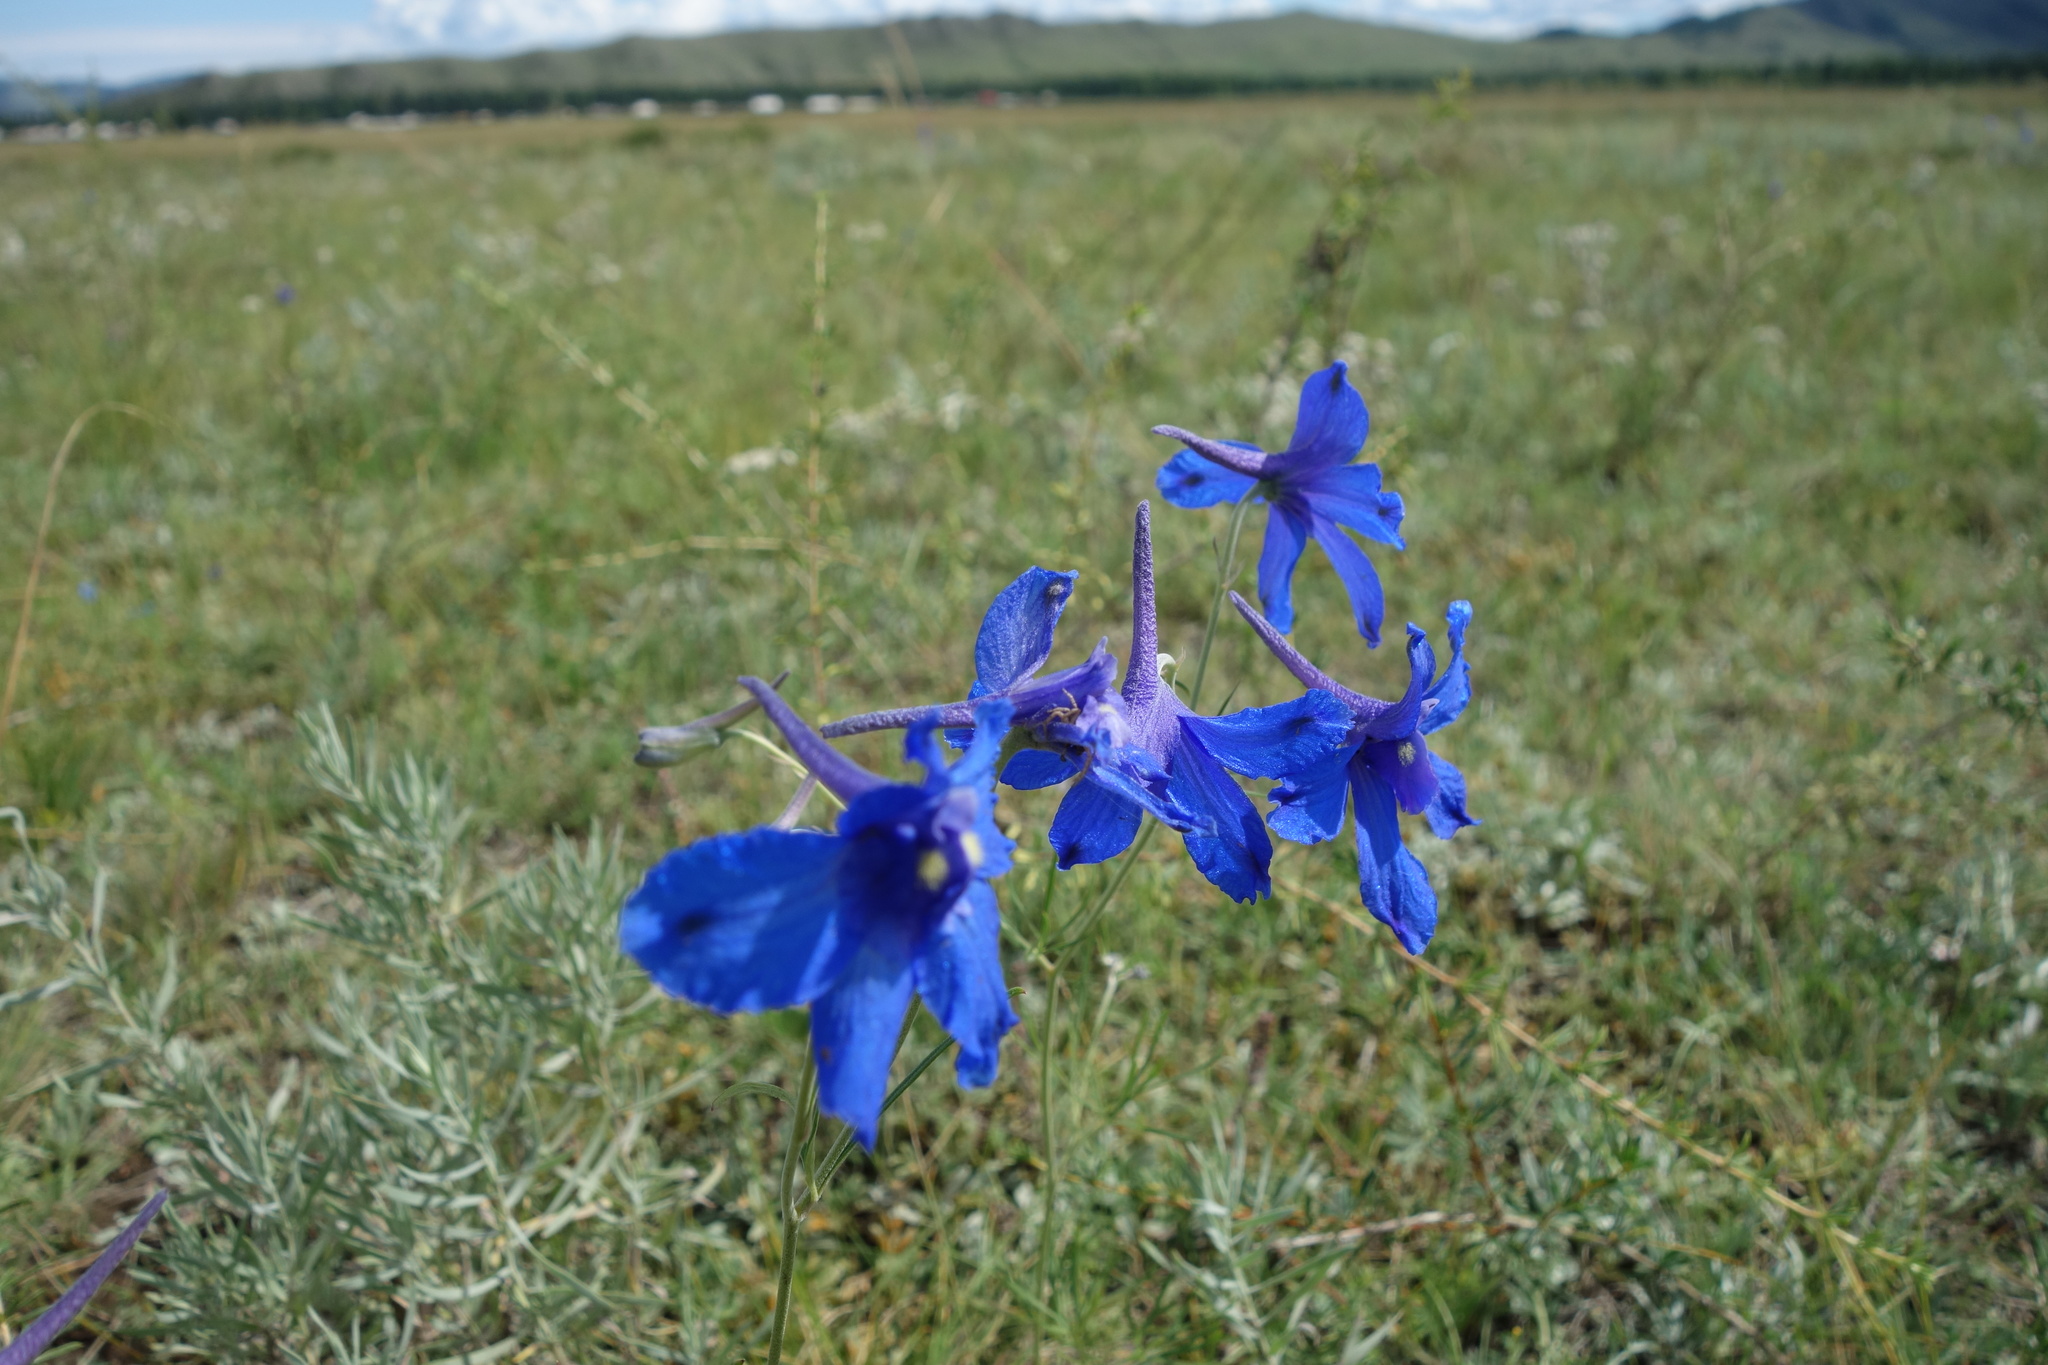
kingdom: Plantae
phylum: Tracheophyta
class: Magnoliopsida
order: Ranunculales
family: Ranunculaceae
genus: Delphinium
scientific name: Delphinium grandiflorum
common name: Siberian larkspur
